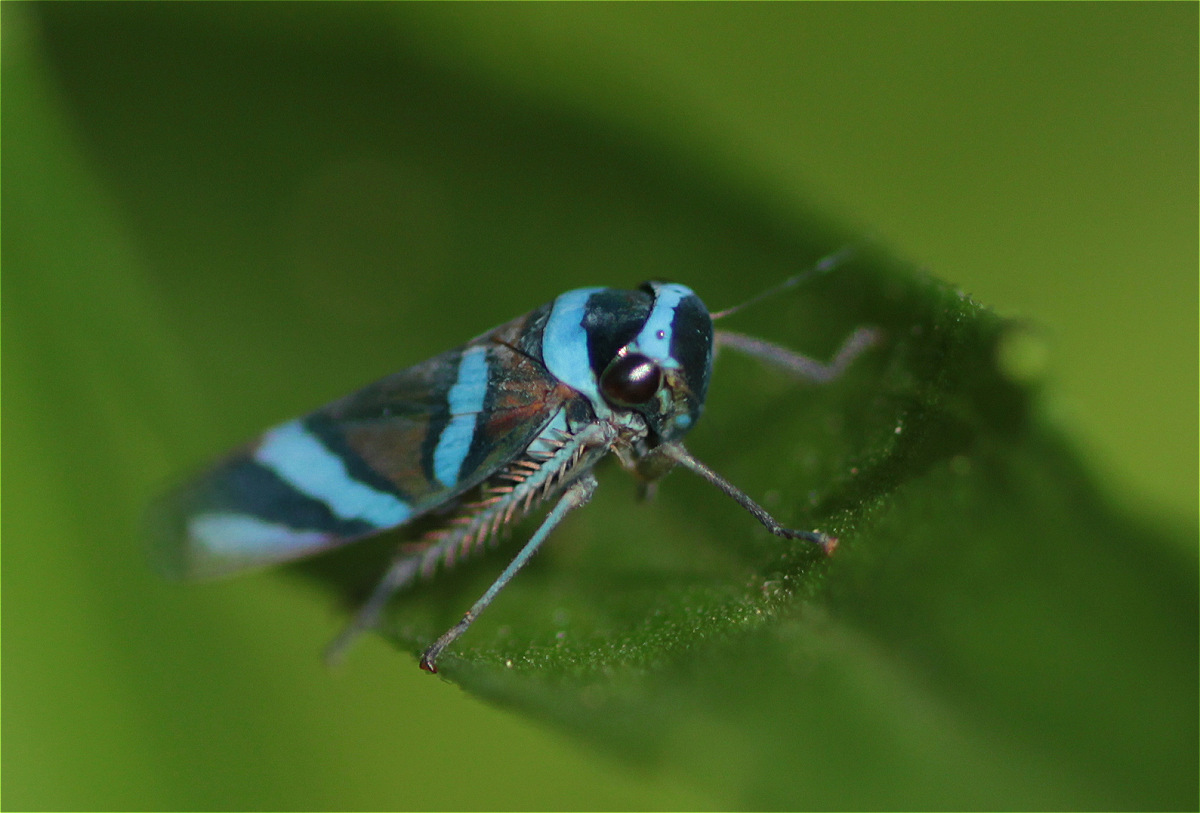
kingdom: Animalia
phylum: Arthropoda
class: Insecta
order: Hemiptera
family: Cicadellidae
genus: Macugonalia
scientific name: Macugonalia moesta
